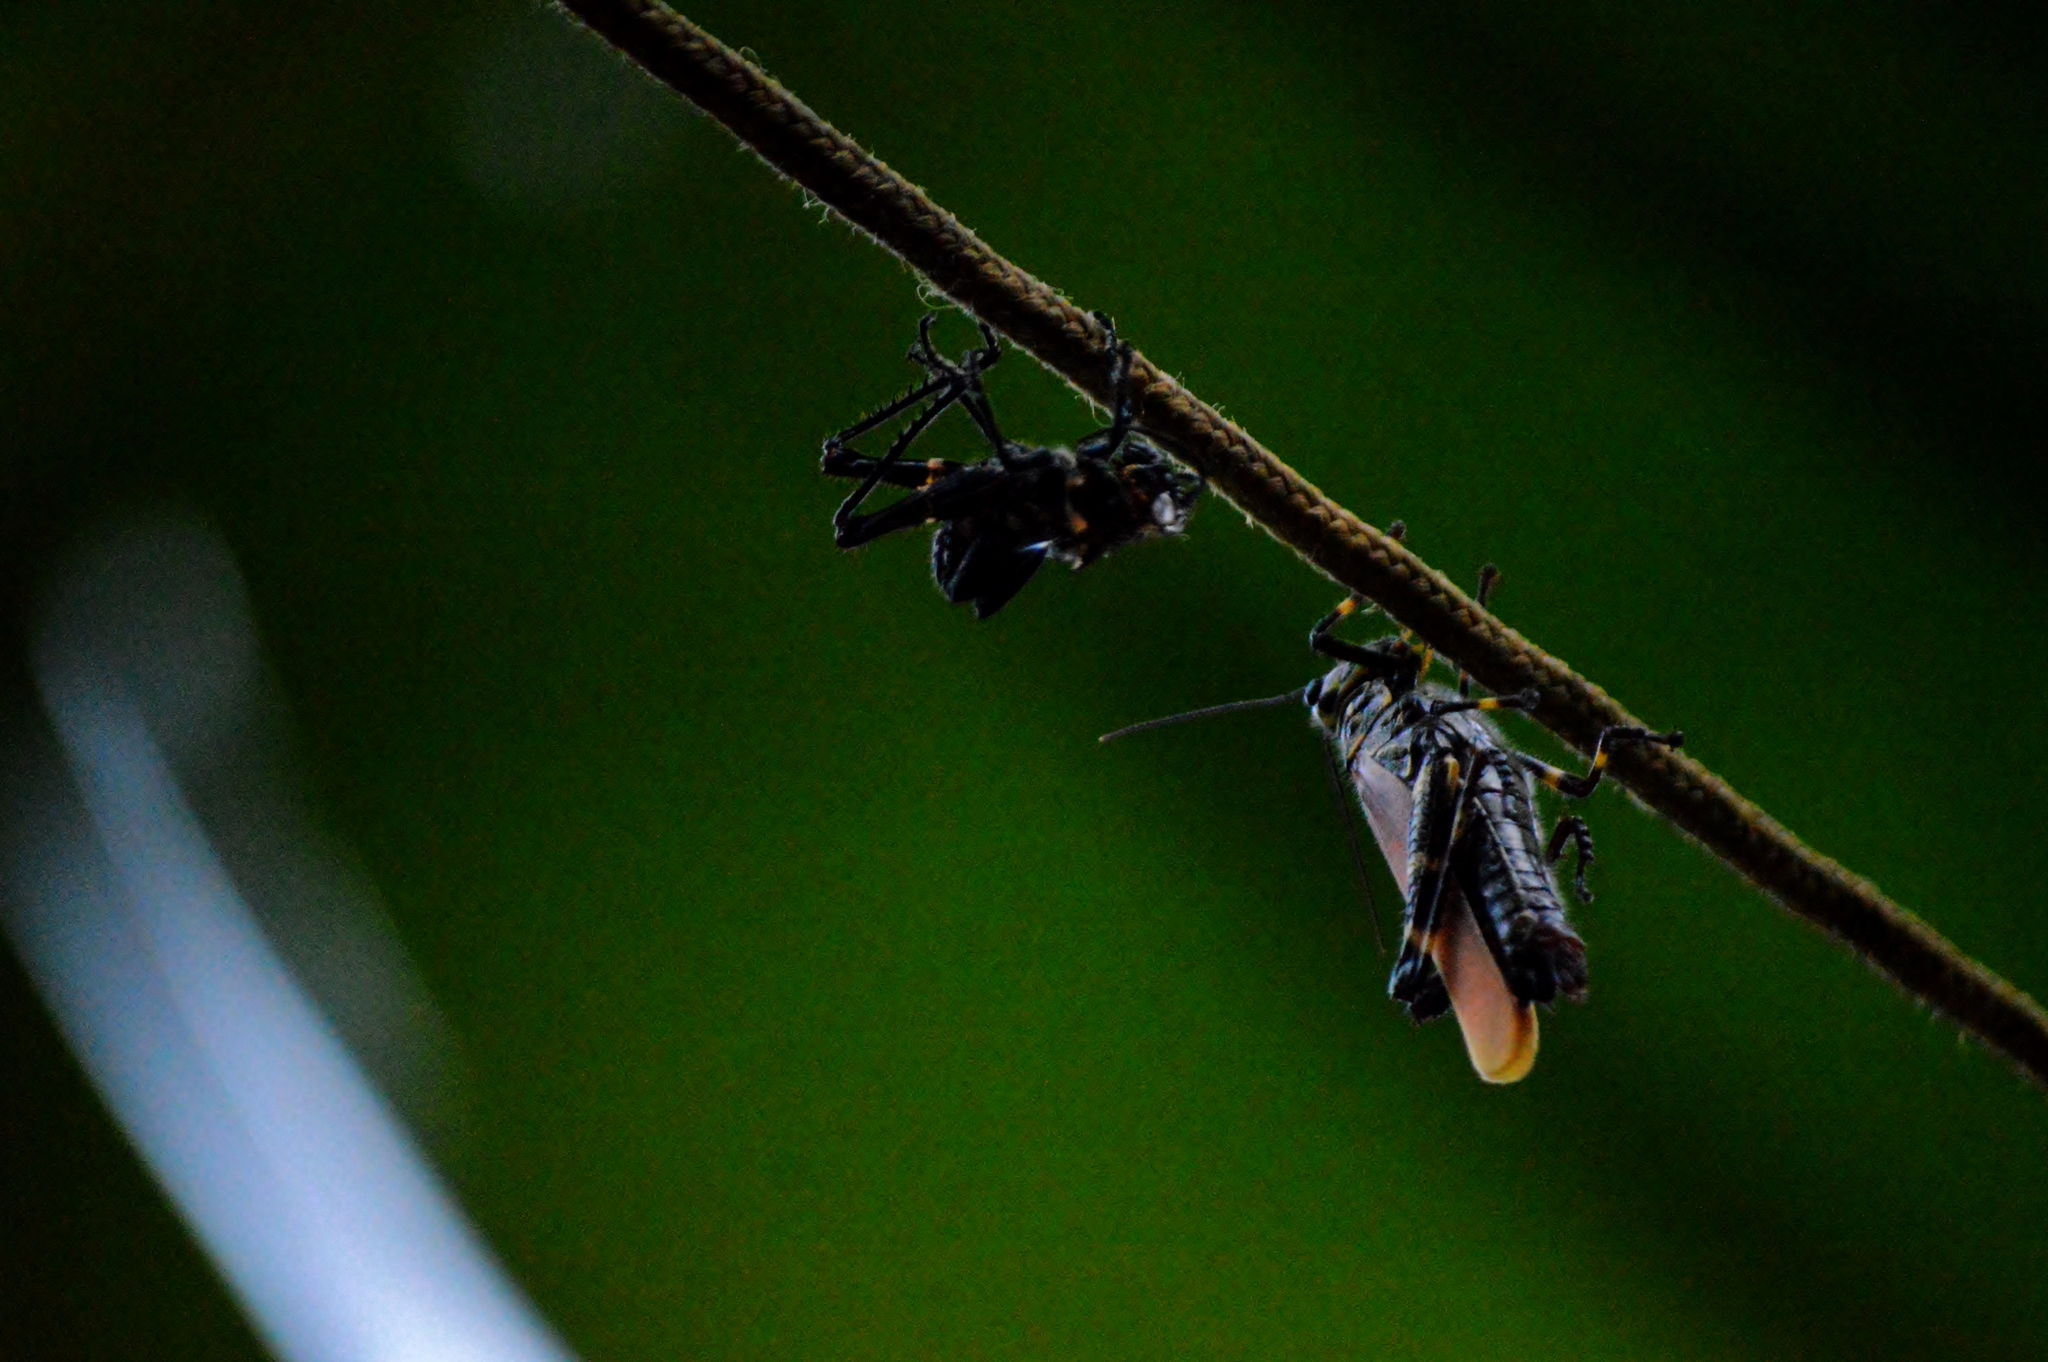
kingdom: Animalia
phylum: Arthropoda
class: Insecta
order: Orthoptera
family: Romaleidae
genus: Chromacris
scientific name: Chromacris speciosa
